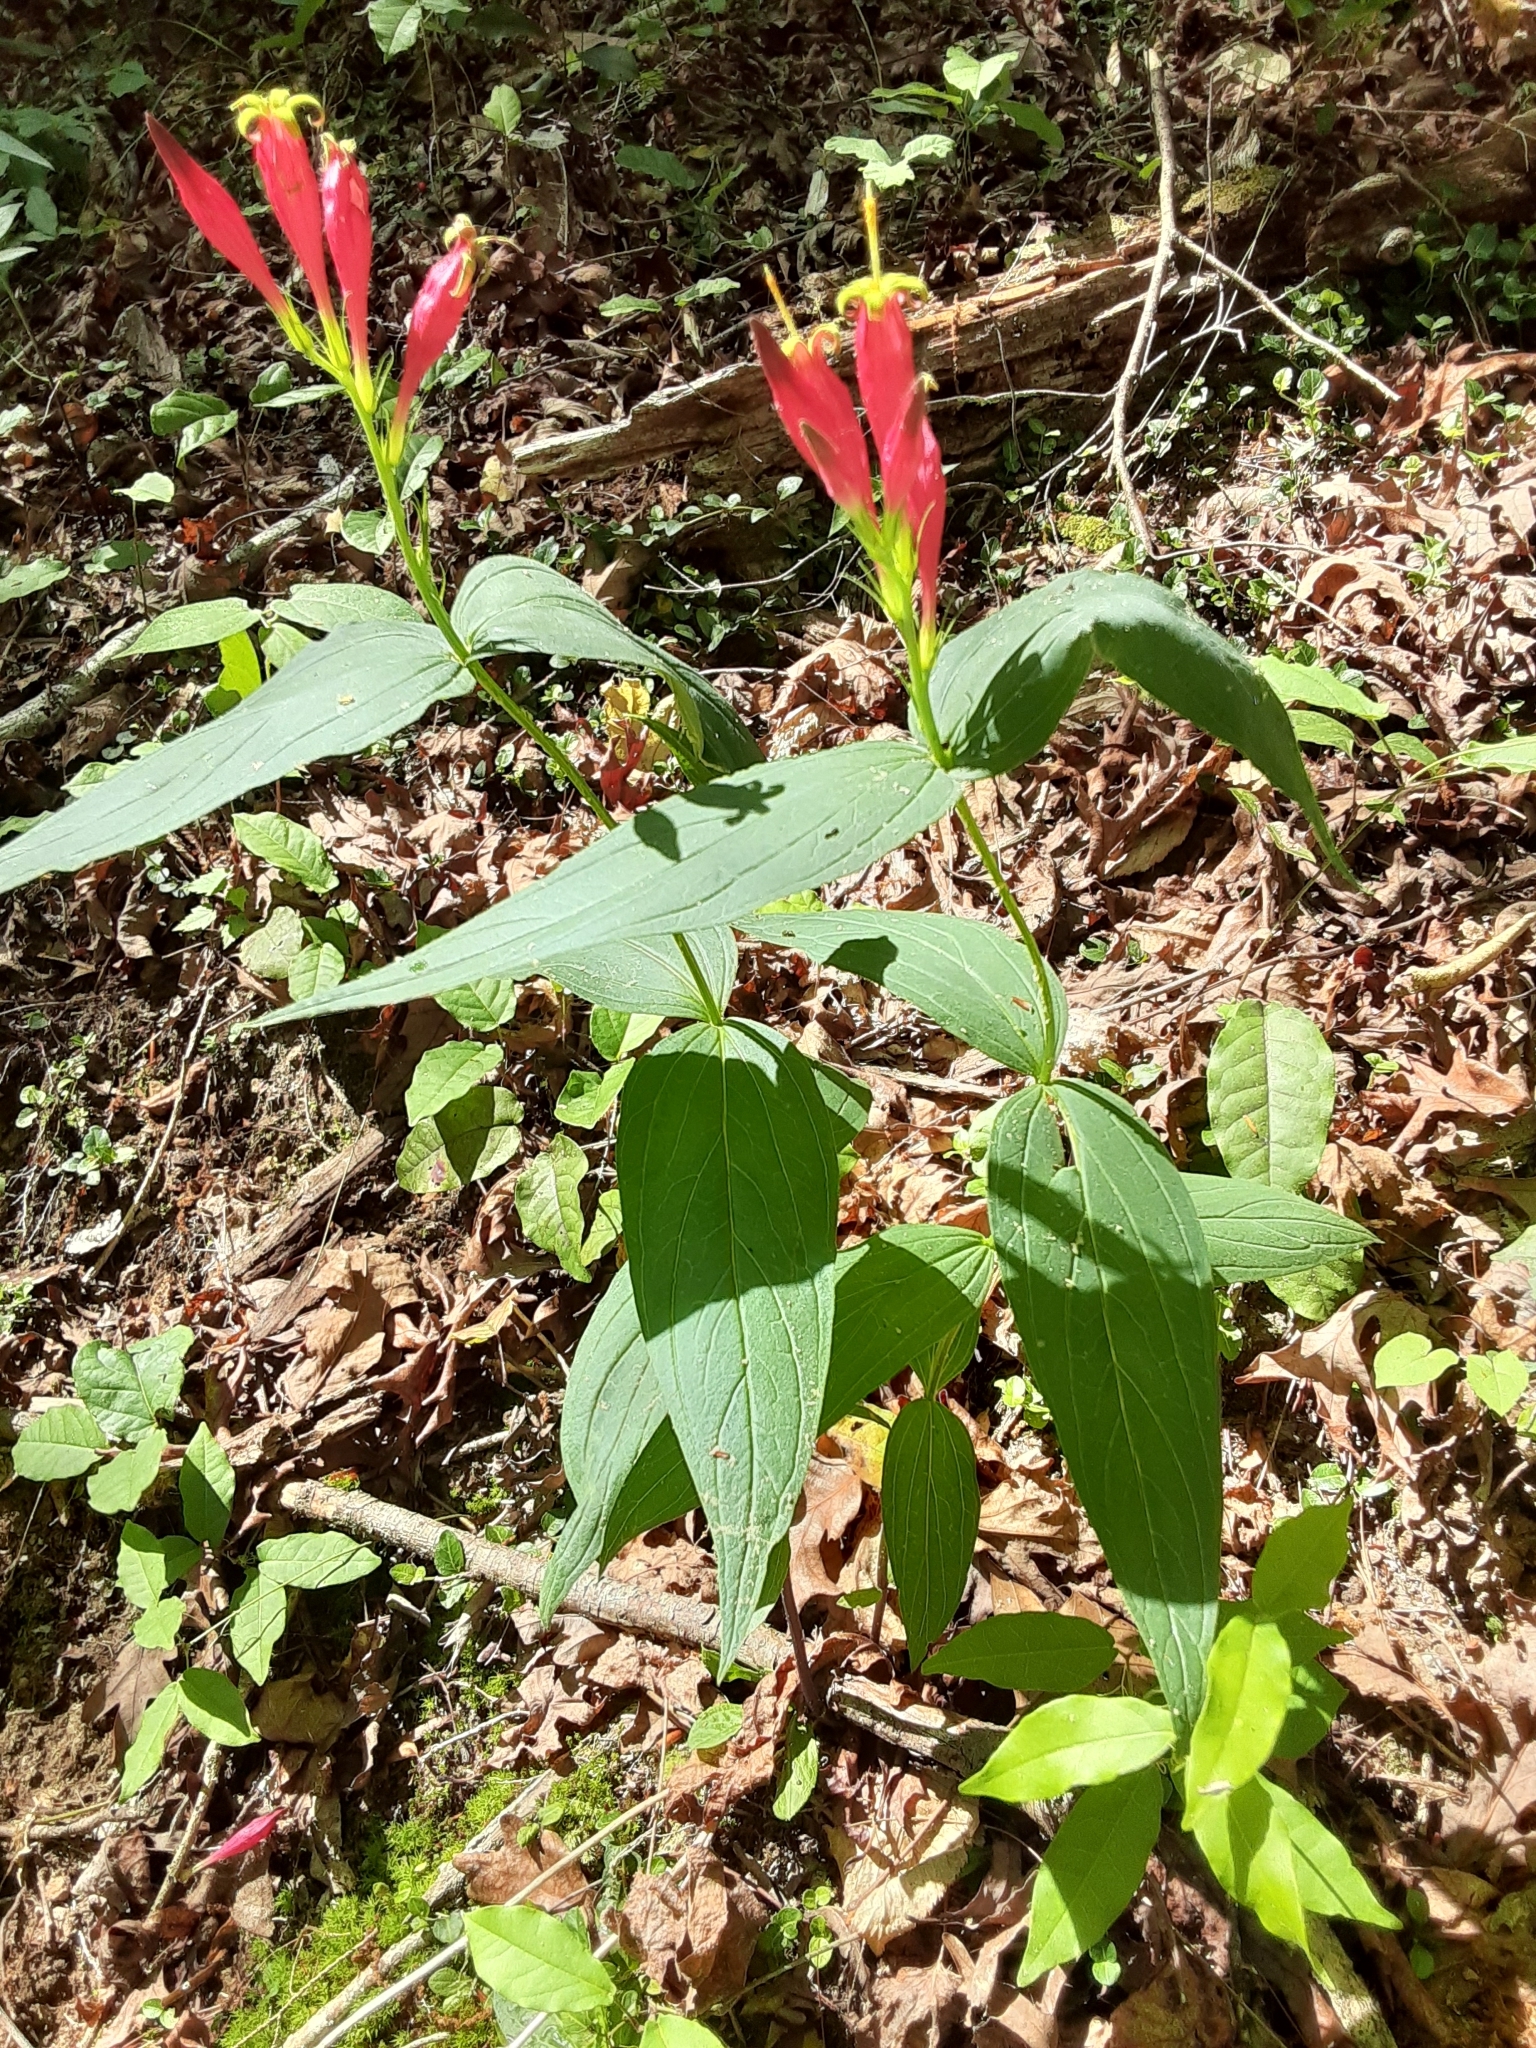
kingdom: Plantae
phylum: Tracheophyta
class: Magnoliopsida
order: Gentianales
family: Loganiaceae
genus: Spigelia
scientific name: Spigelia marilandica
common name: Indian-pink
